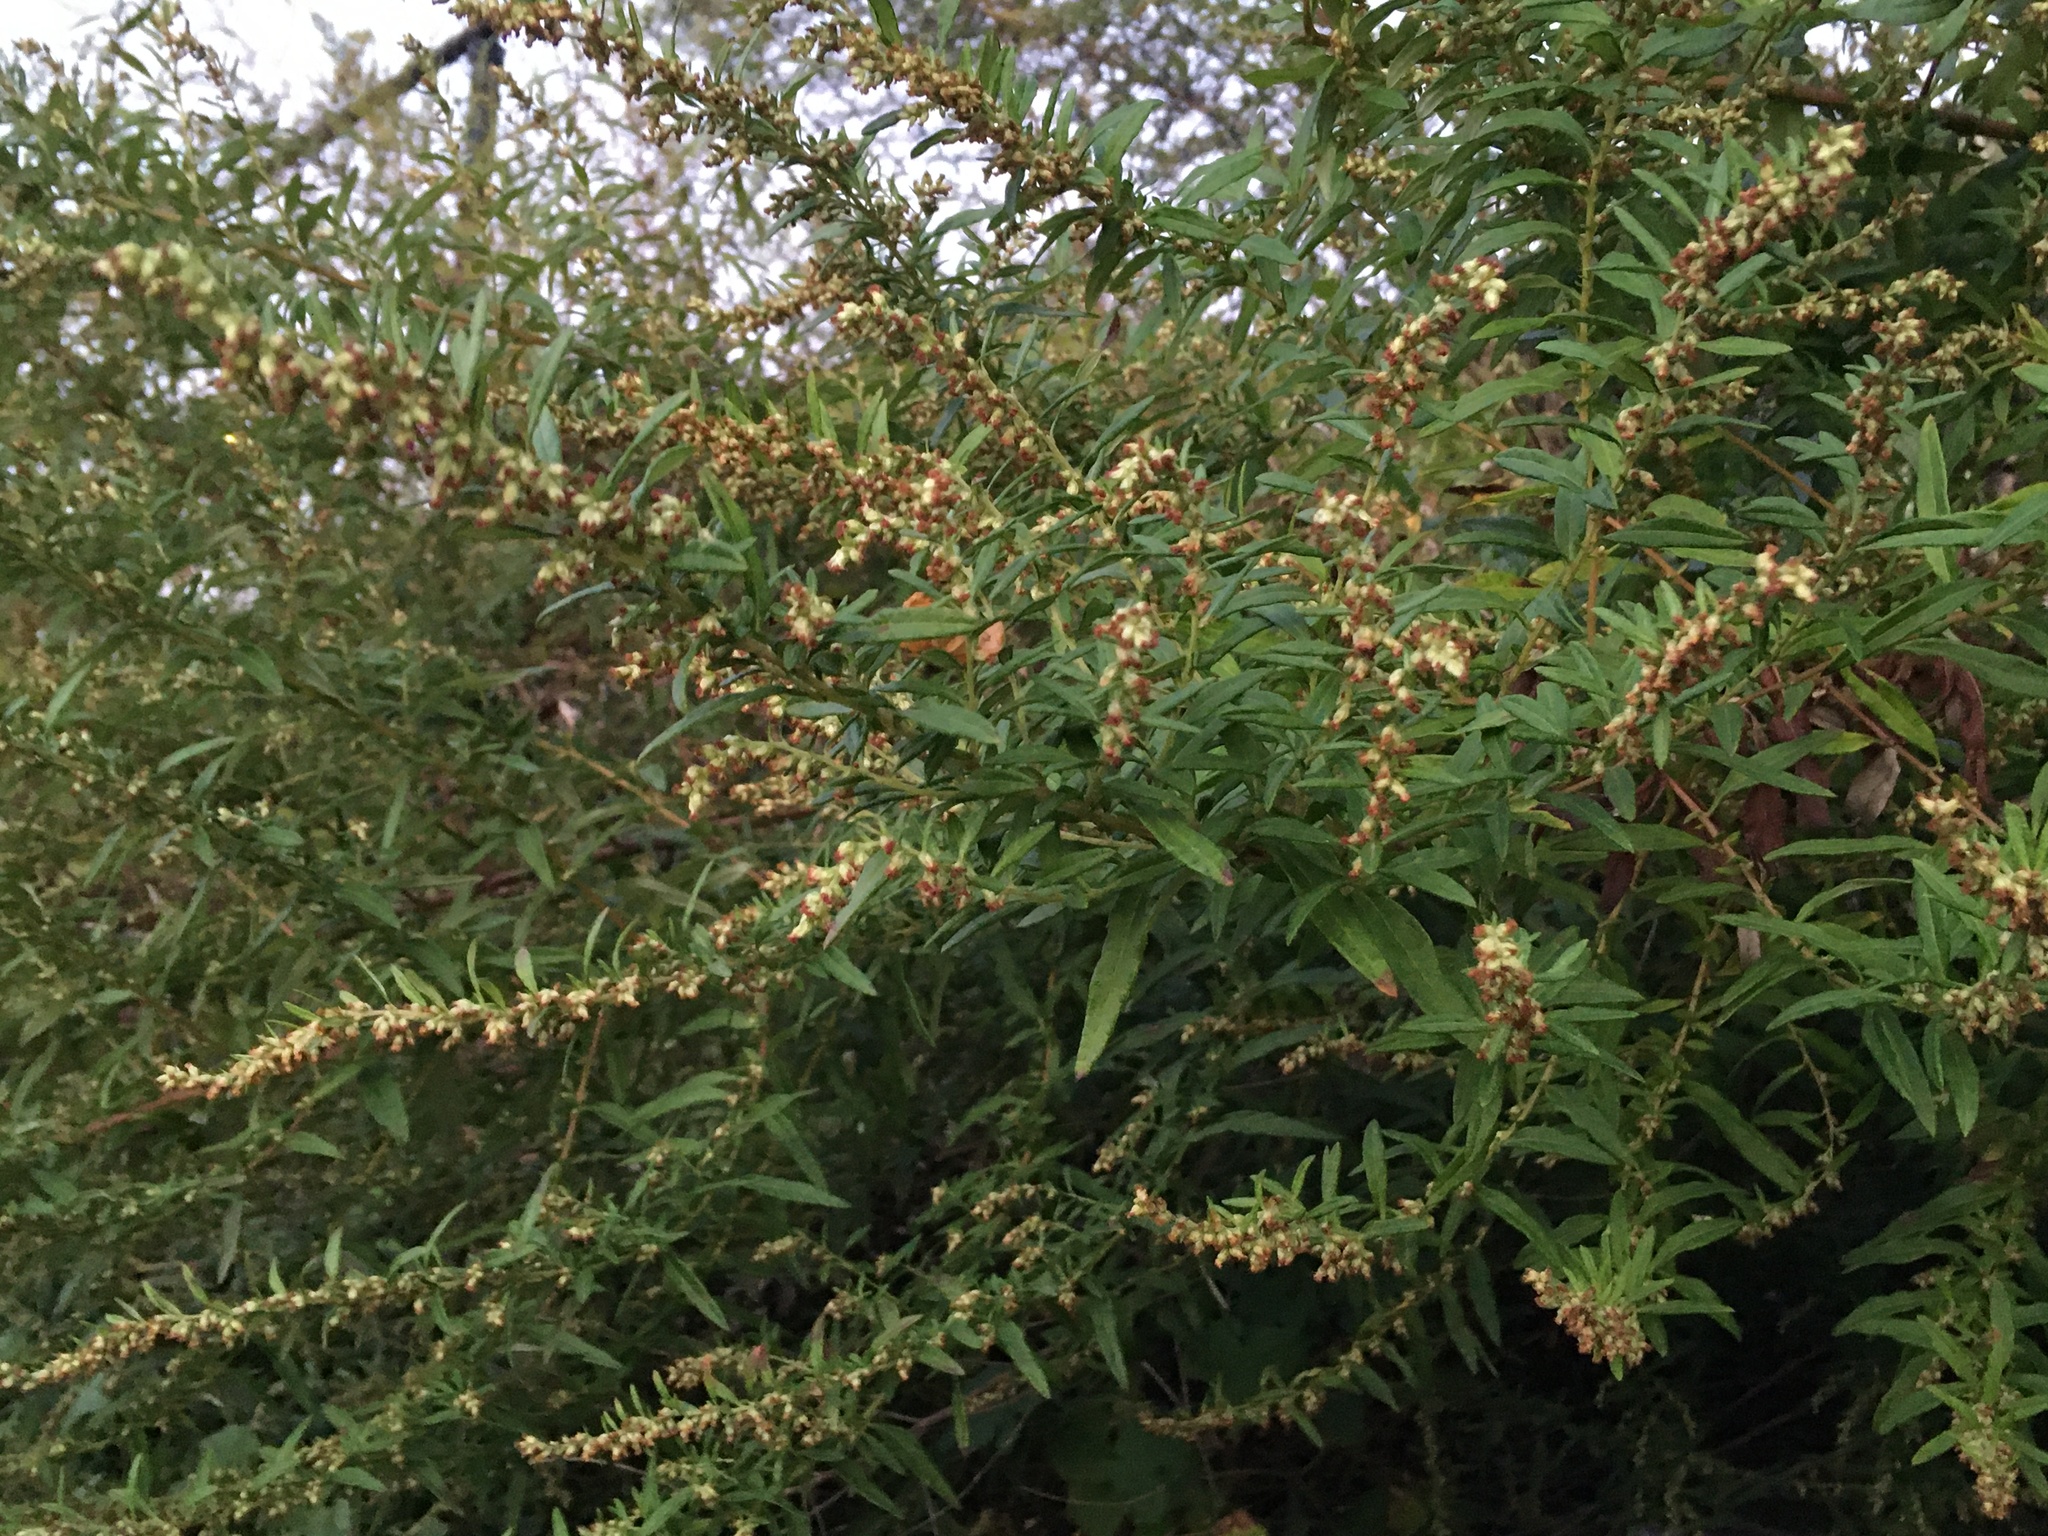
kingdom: Plantae
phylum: Tracheophyta
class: Magnoliopsida
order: Asterales
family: Asteraceae
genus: Artemisia
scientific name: Artemisia vulgaris
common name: Mugwort
